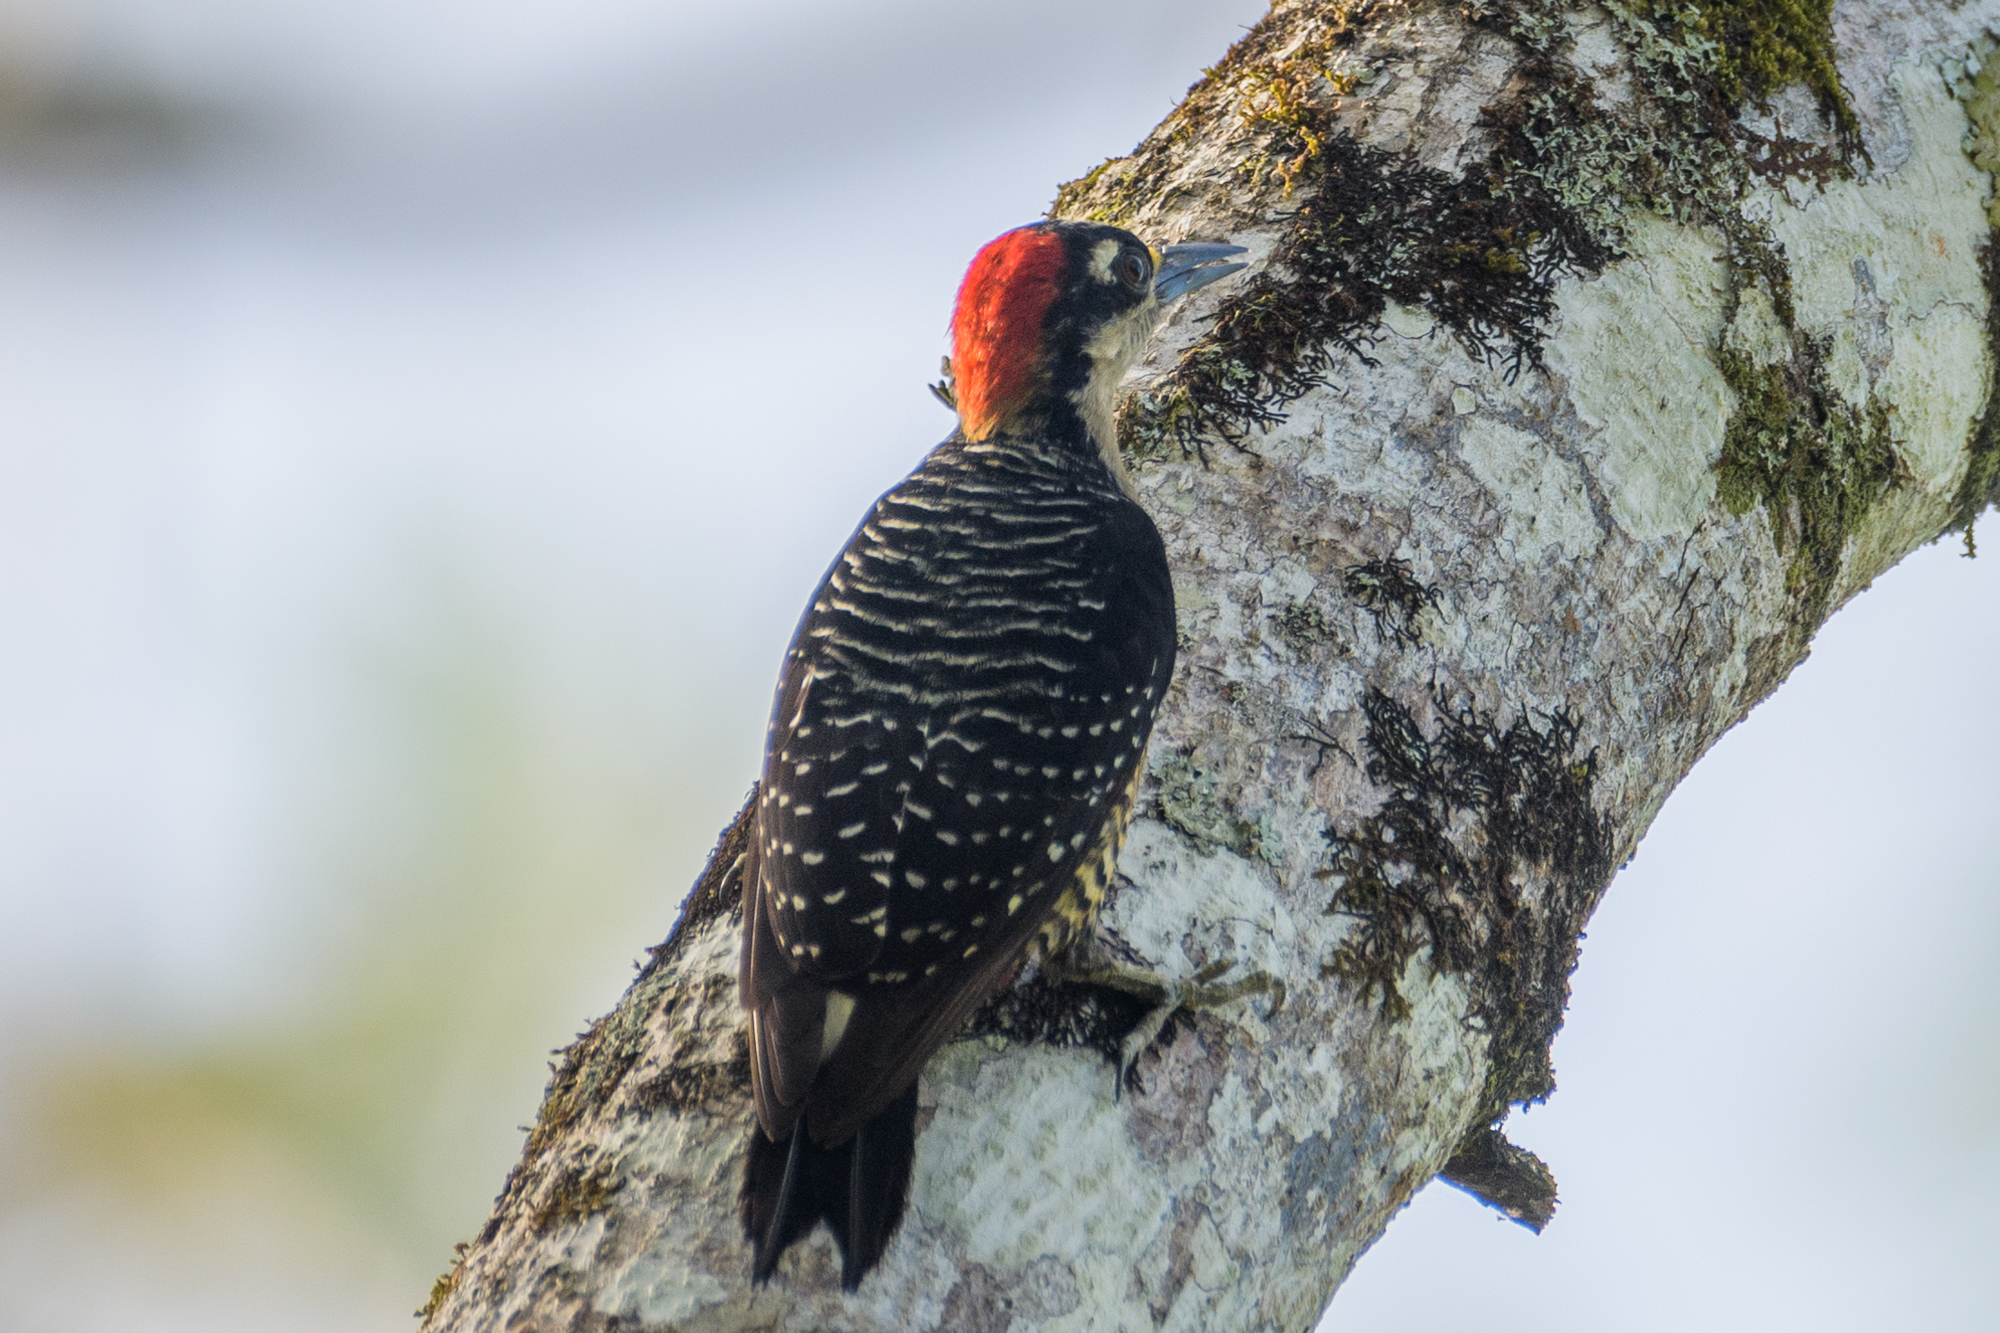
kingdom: Animalia
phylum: Chordata
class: Aves
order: Piciformes
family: Picidae
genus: Melanerpes
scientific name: Melanerpes pucherani
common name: Black-cheeked woodpecker
